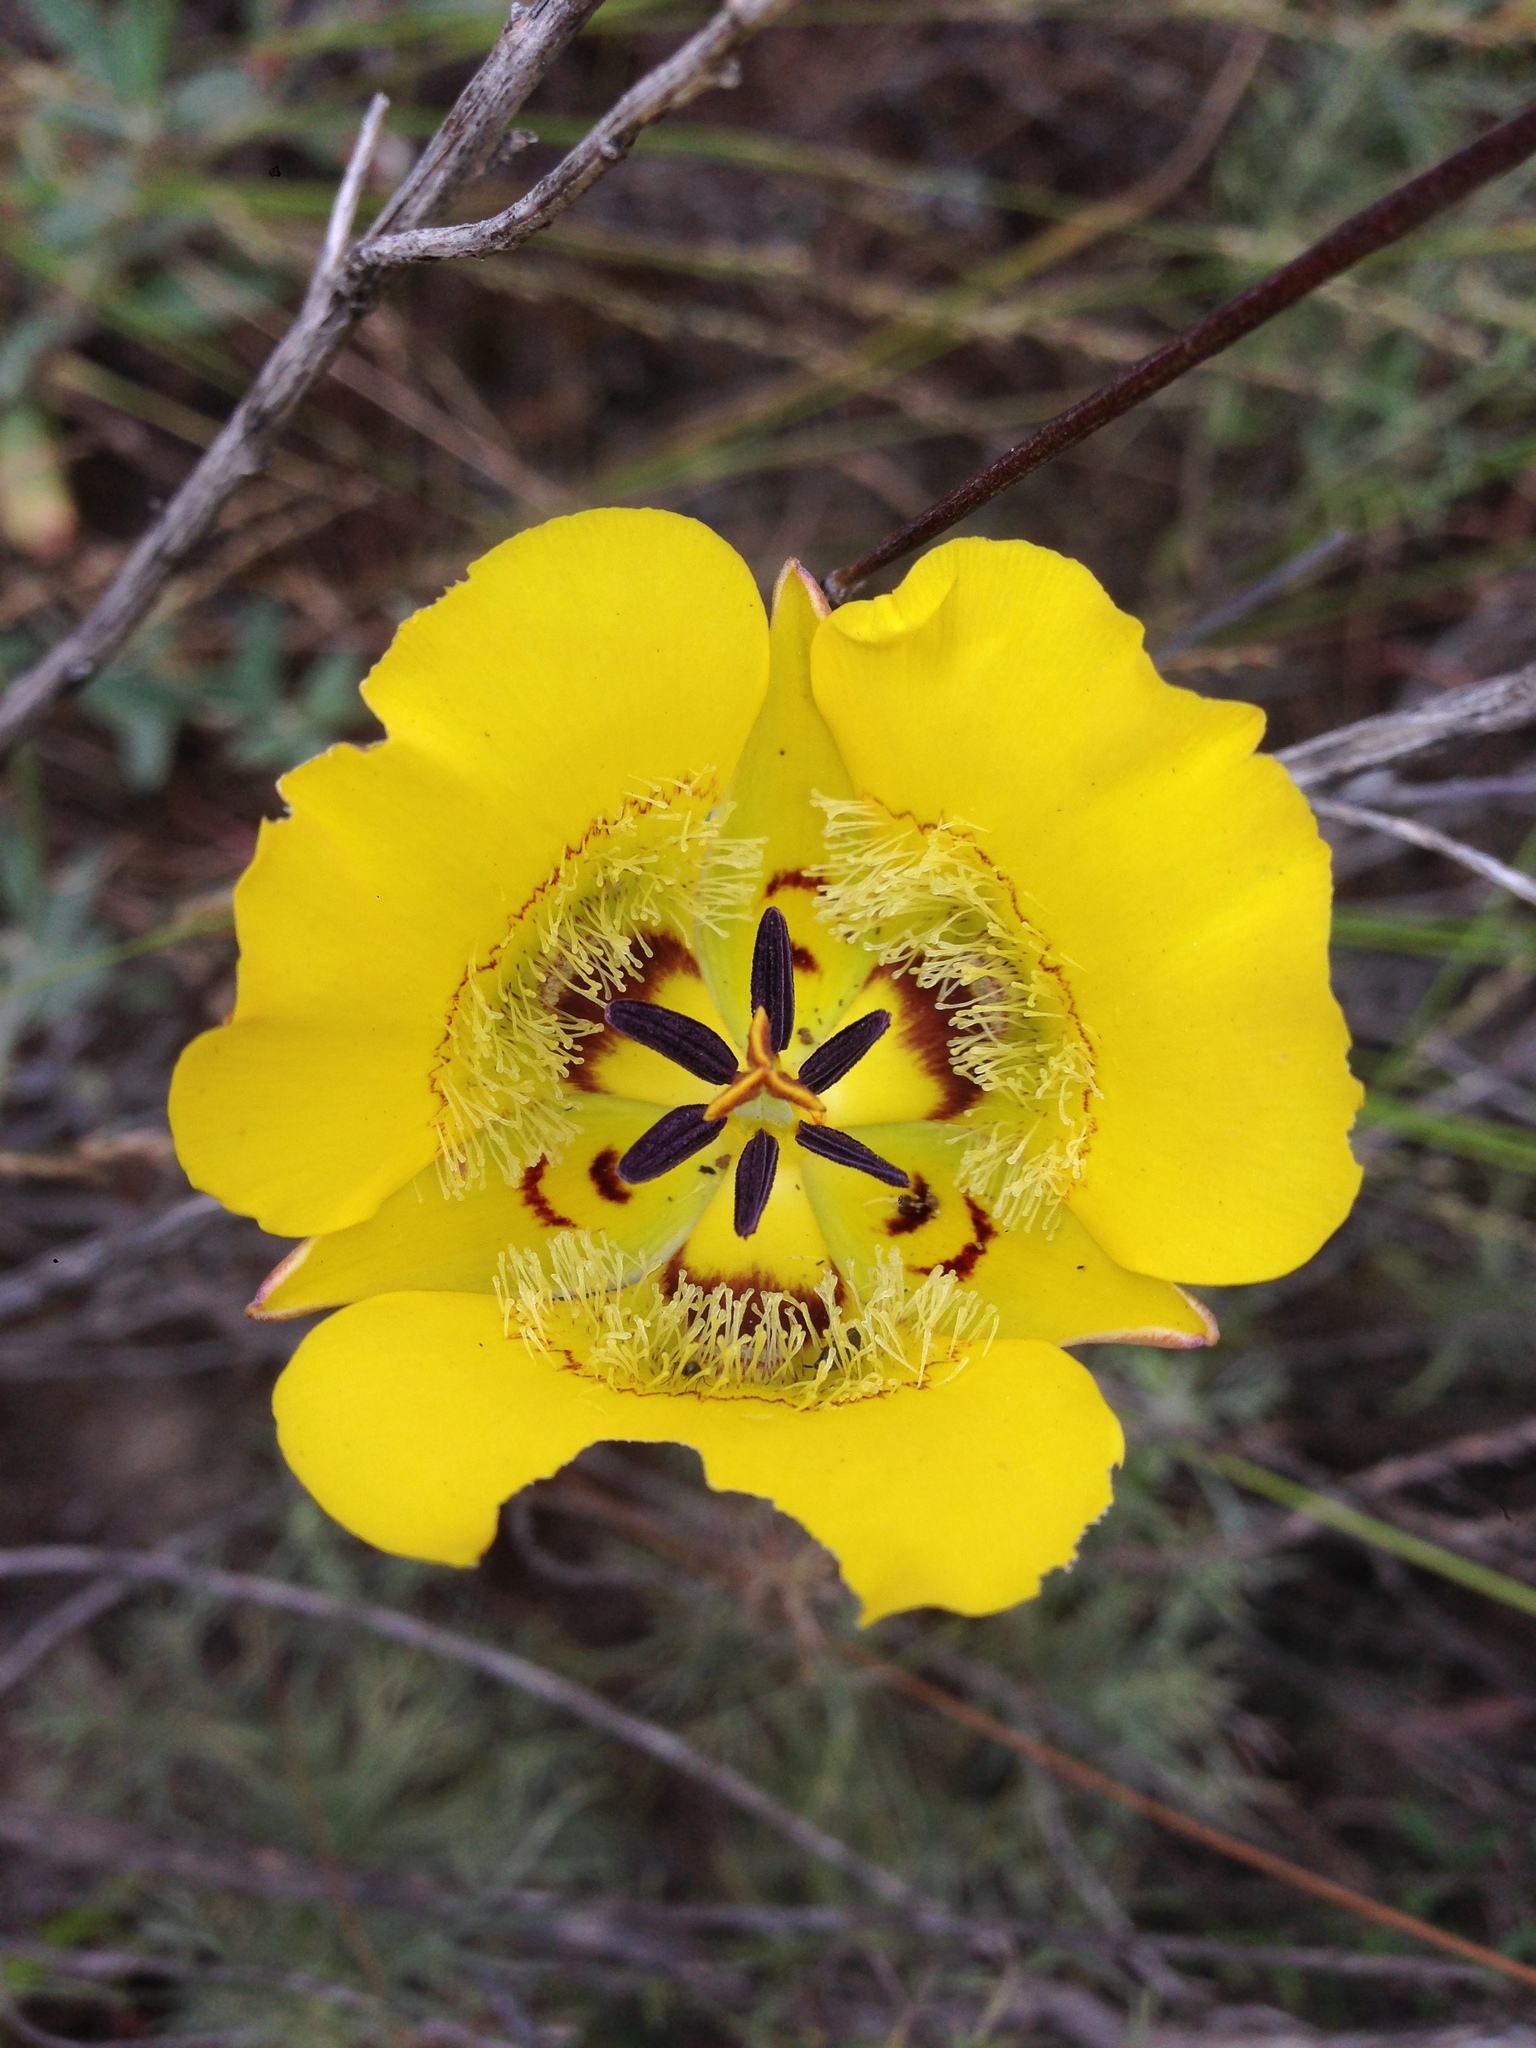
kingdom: Plantae
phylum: Tracheophyta
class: Liliopsida
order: Liliales
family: Liliaceae
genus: Calochortus
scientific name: Calochortus clavatus
